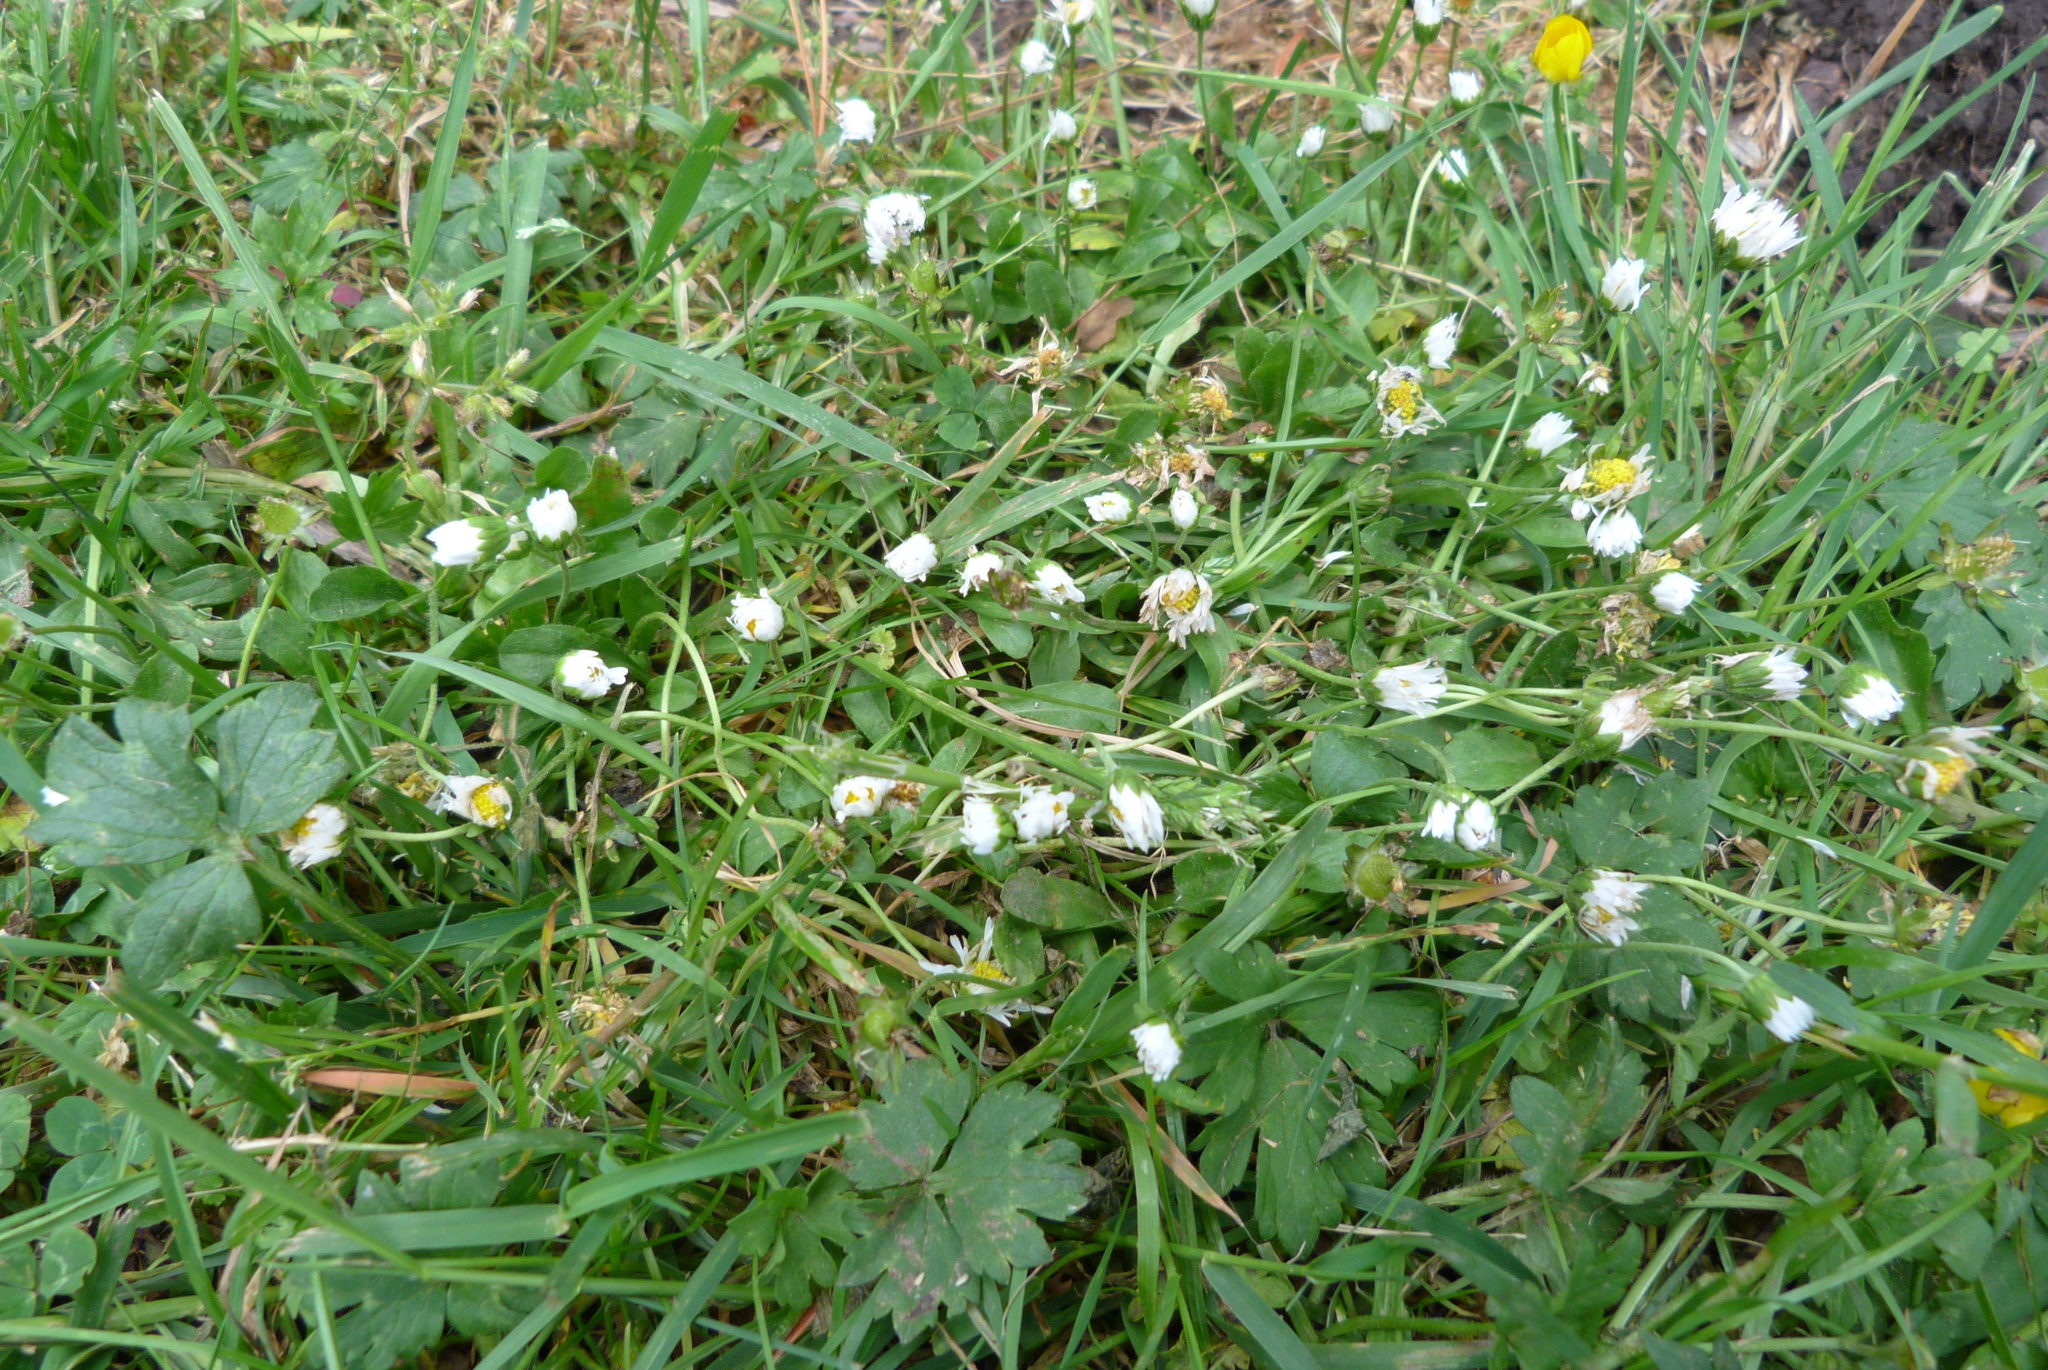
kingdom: Plantae
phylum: Tracheophyta
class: Magnoliopsida
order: Asterales
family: Asteraceae
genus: Bellis
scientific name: Bellis perennis
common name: Lawndaisy
